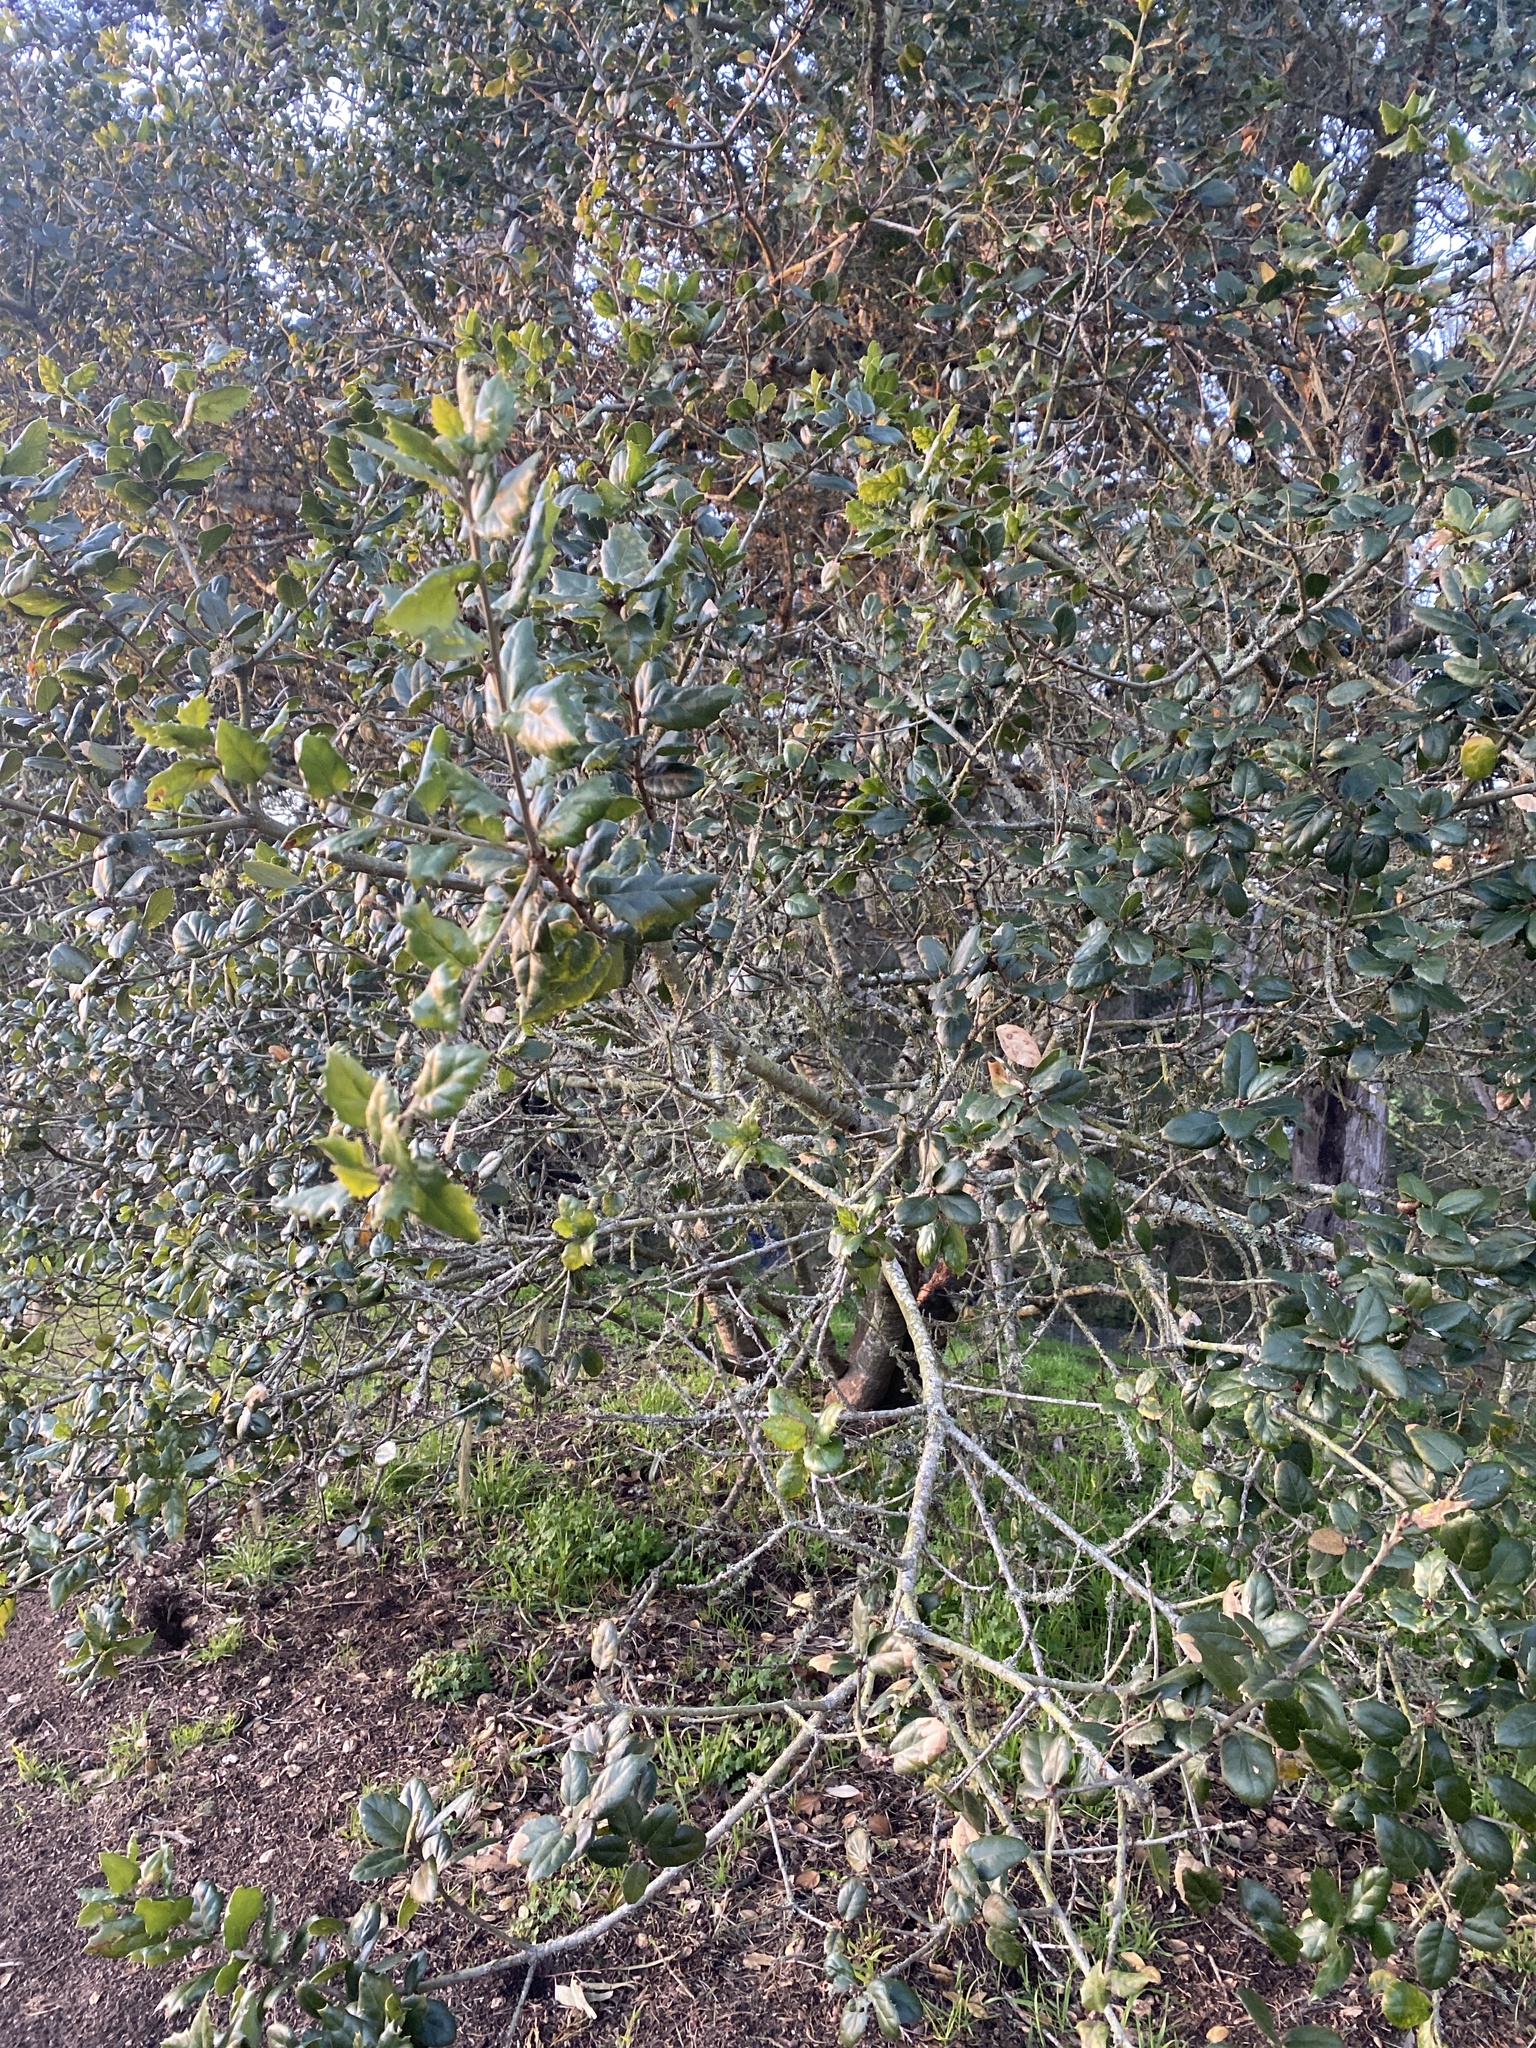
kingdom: Plantae
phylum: Tracheophyta
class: Magnoliopsida
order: Fagales
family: Fagaceae
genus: Quercus
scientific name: Quercus agrifolia
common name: California live oak
